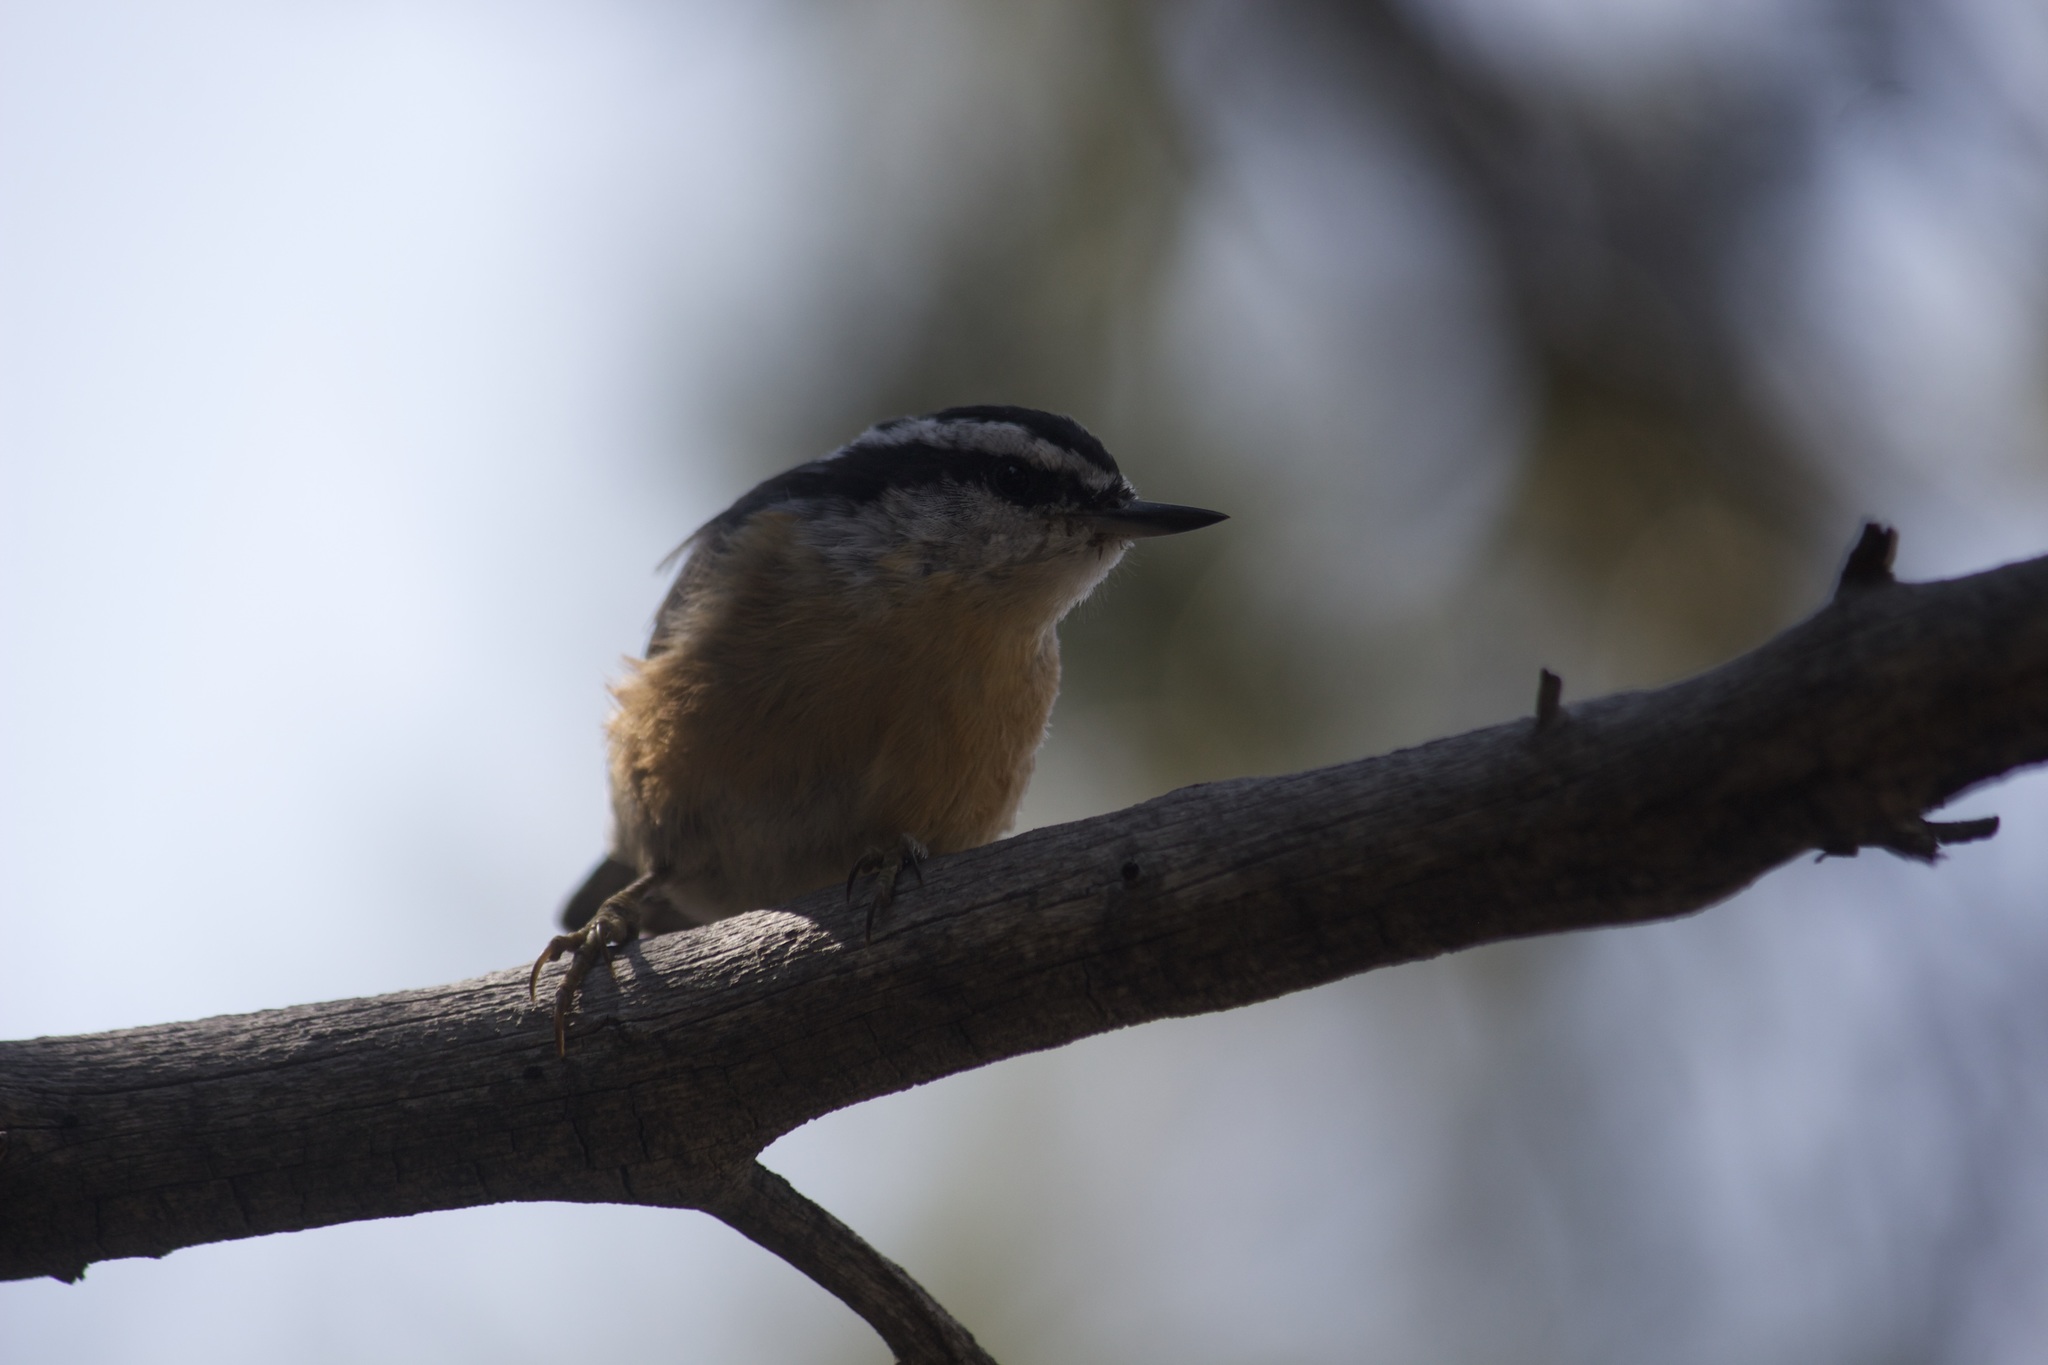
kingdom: Animalia
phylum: Chordata
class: Aves
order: Passeriformes
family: Sittidae
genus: Sitta
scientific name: Sitta canadensis
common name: Red-breasted nuthatch
